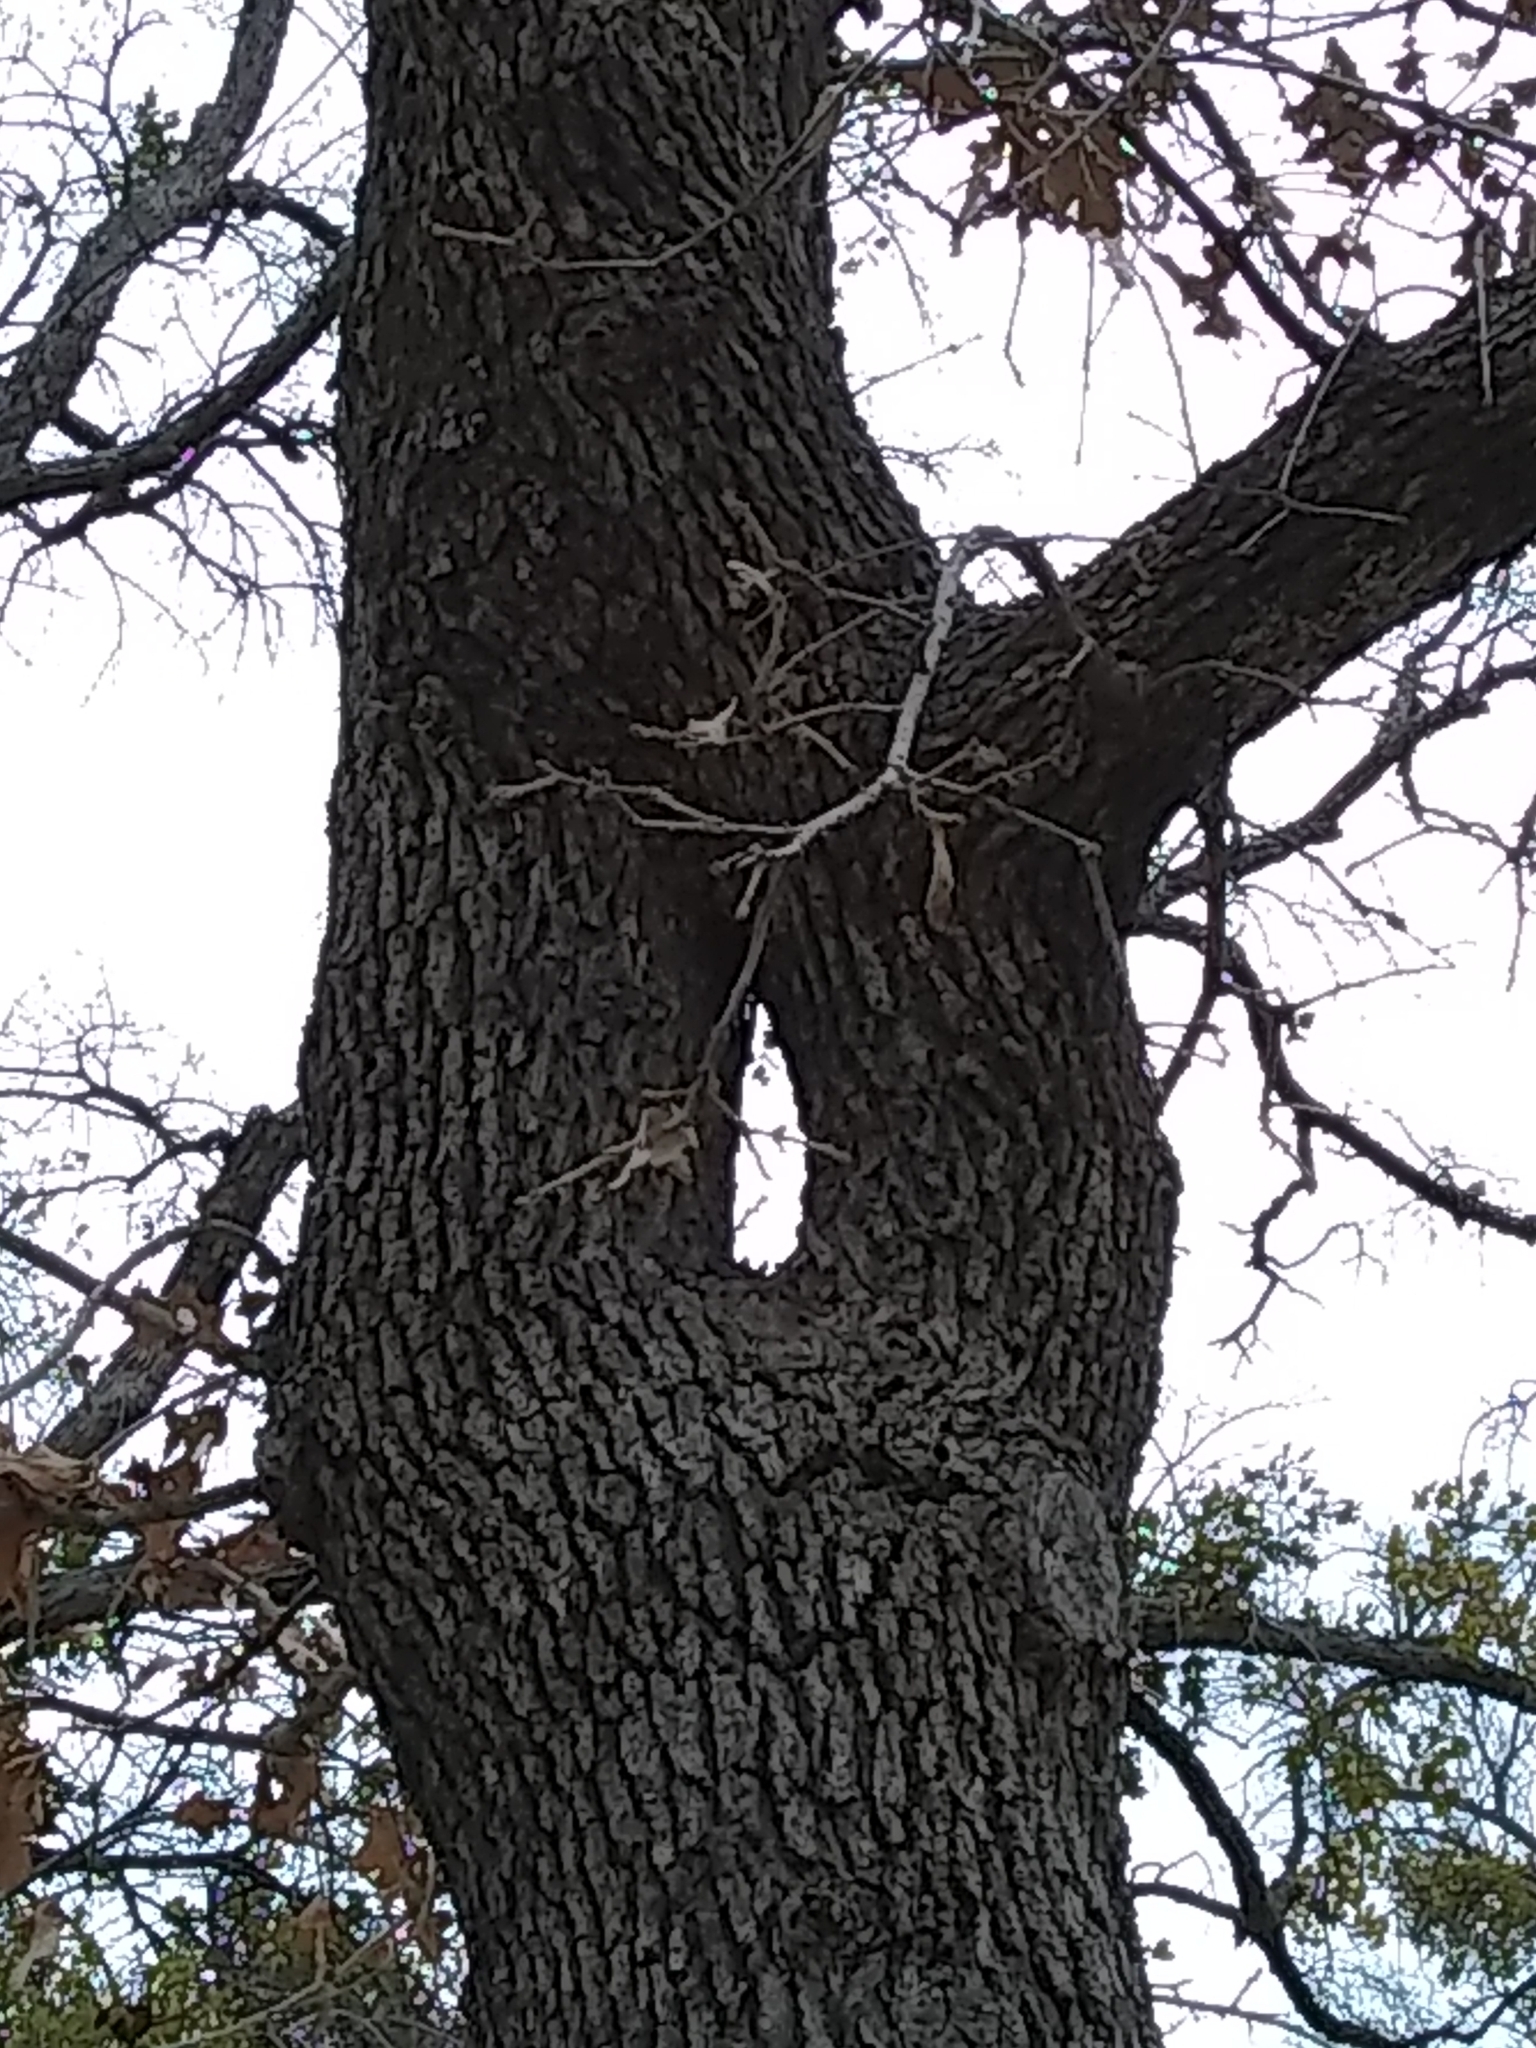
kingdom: Plantae
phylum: Tracheophyta
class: Magnoliopsida
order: Fagales
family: Fagaceae
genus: Quercus
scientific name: Quercus stellata
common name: Post oak
